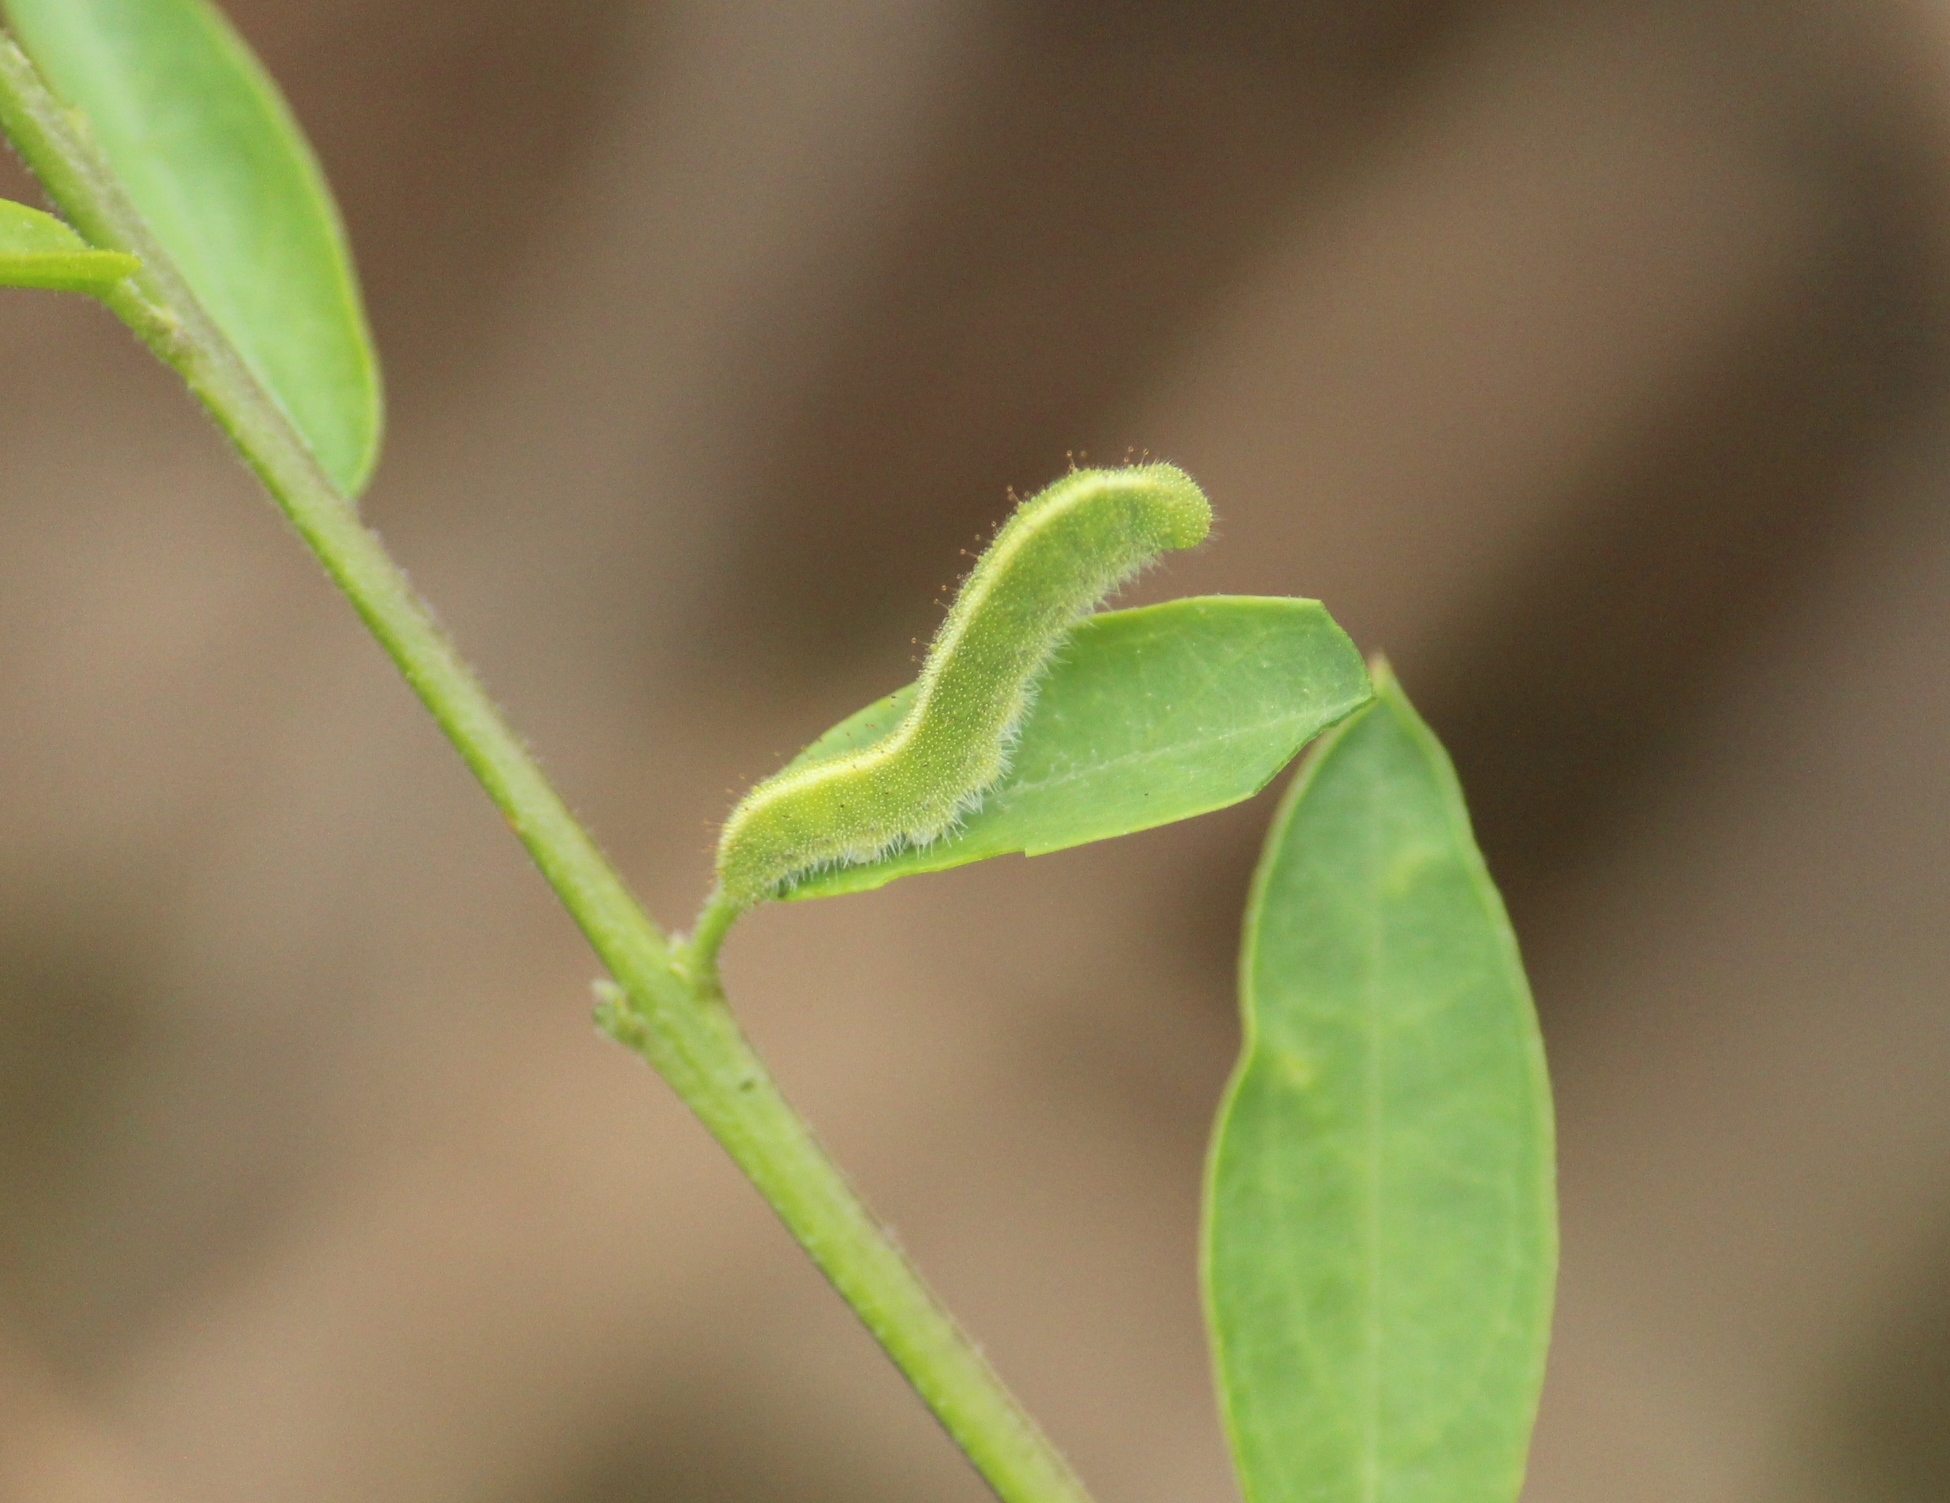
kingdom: Animalia
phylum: Arthropoda
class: Insecta
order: Lepidoptera
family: Pieridae
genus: Colotis
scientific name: Colotis danae
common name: Crimson tip
